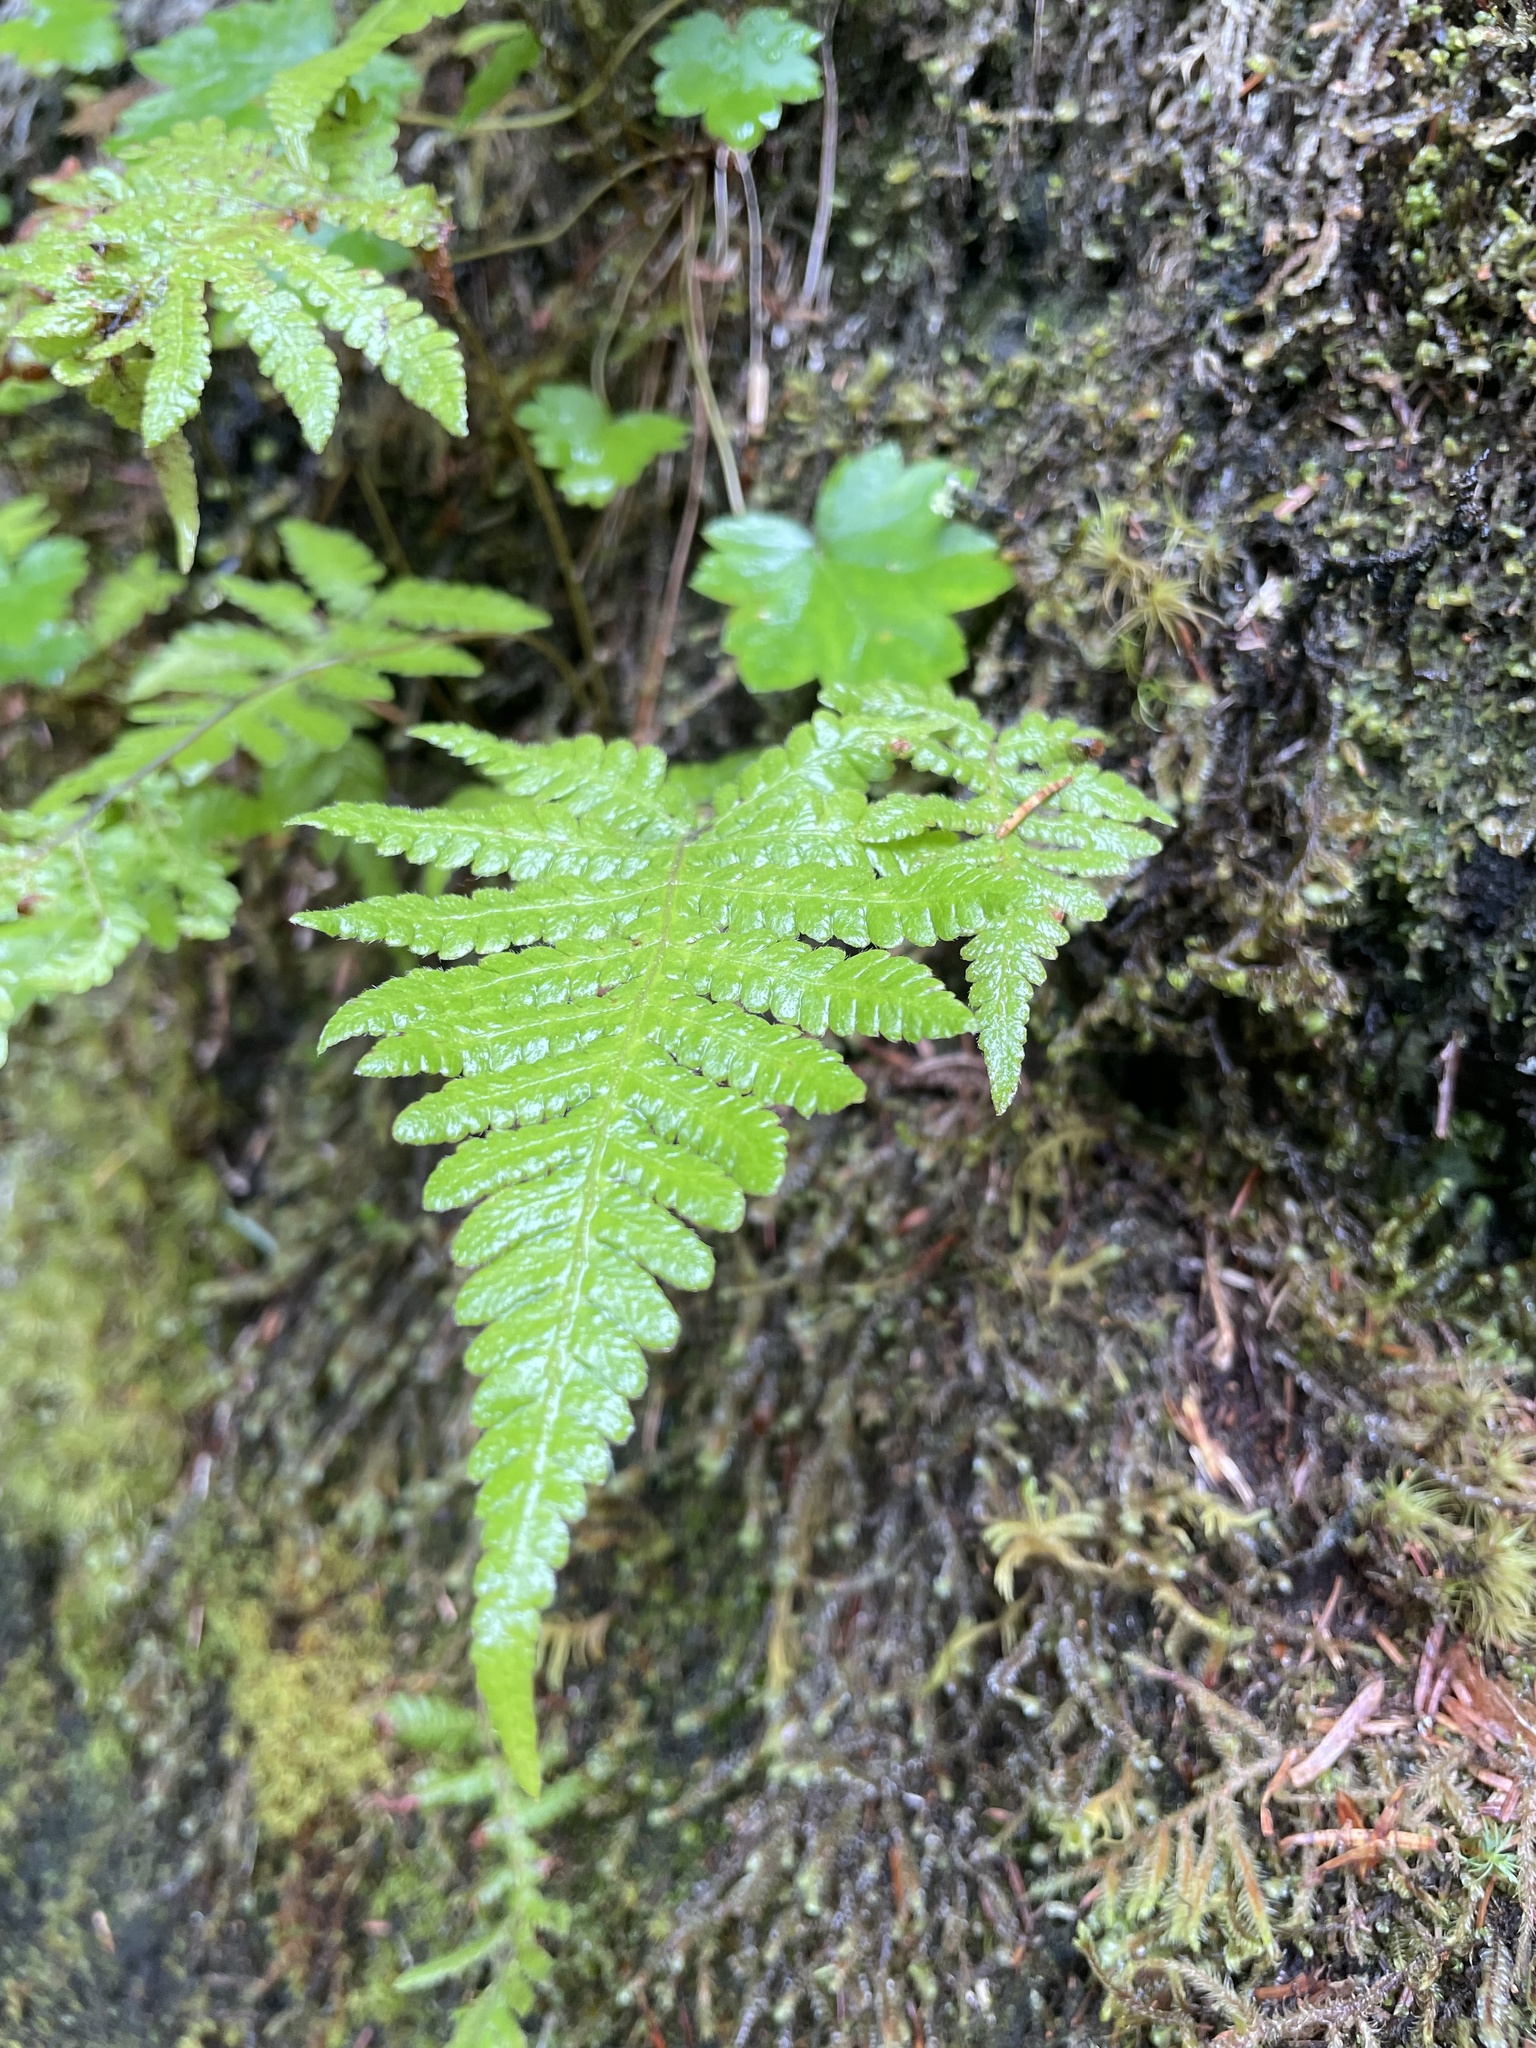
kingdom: Plantae
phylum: Tracheophyta
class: Polypodiopsida
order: Polypodiales
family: Thelypteridaceae
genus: Phegopteris
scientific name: Phegopteris connectilis
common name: Beech fern
